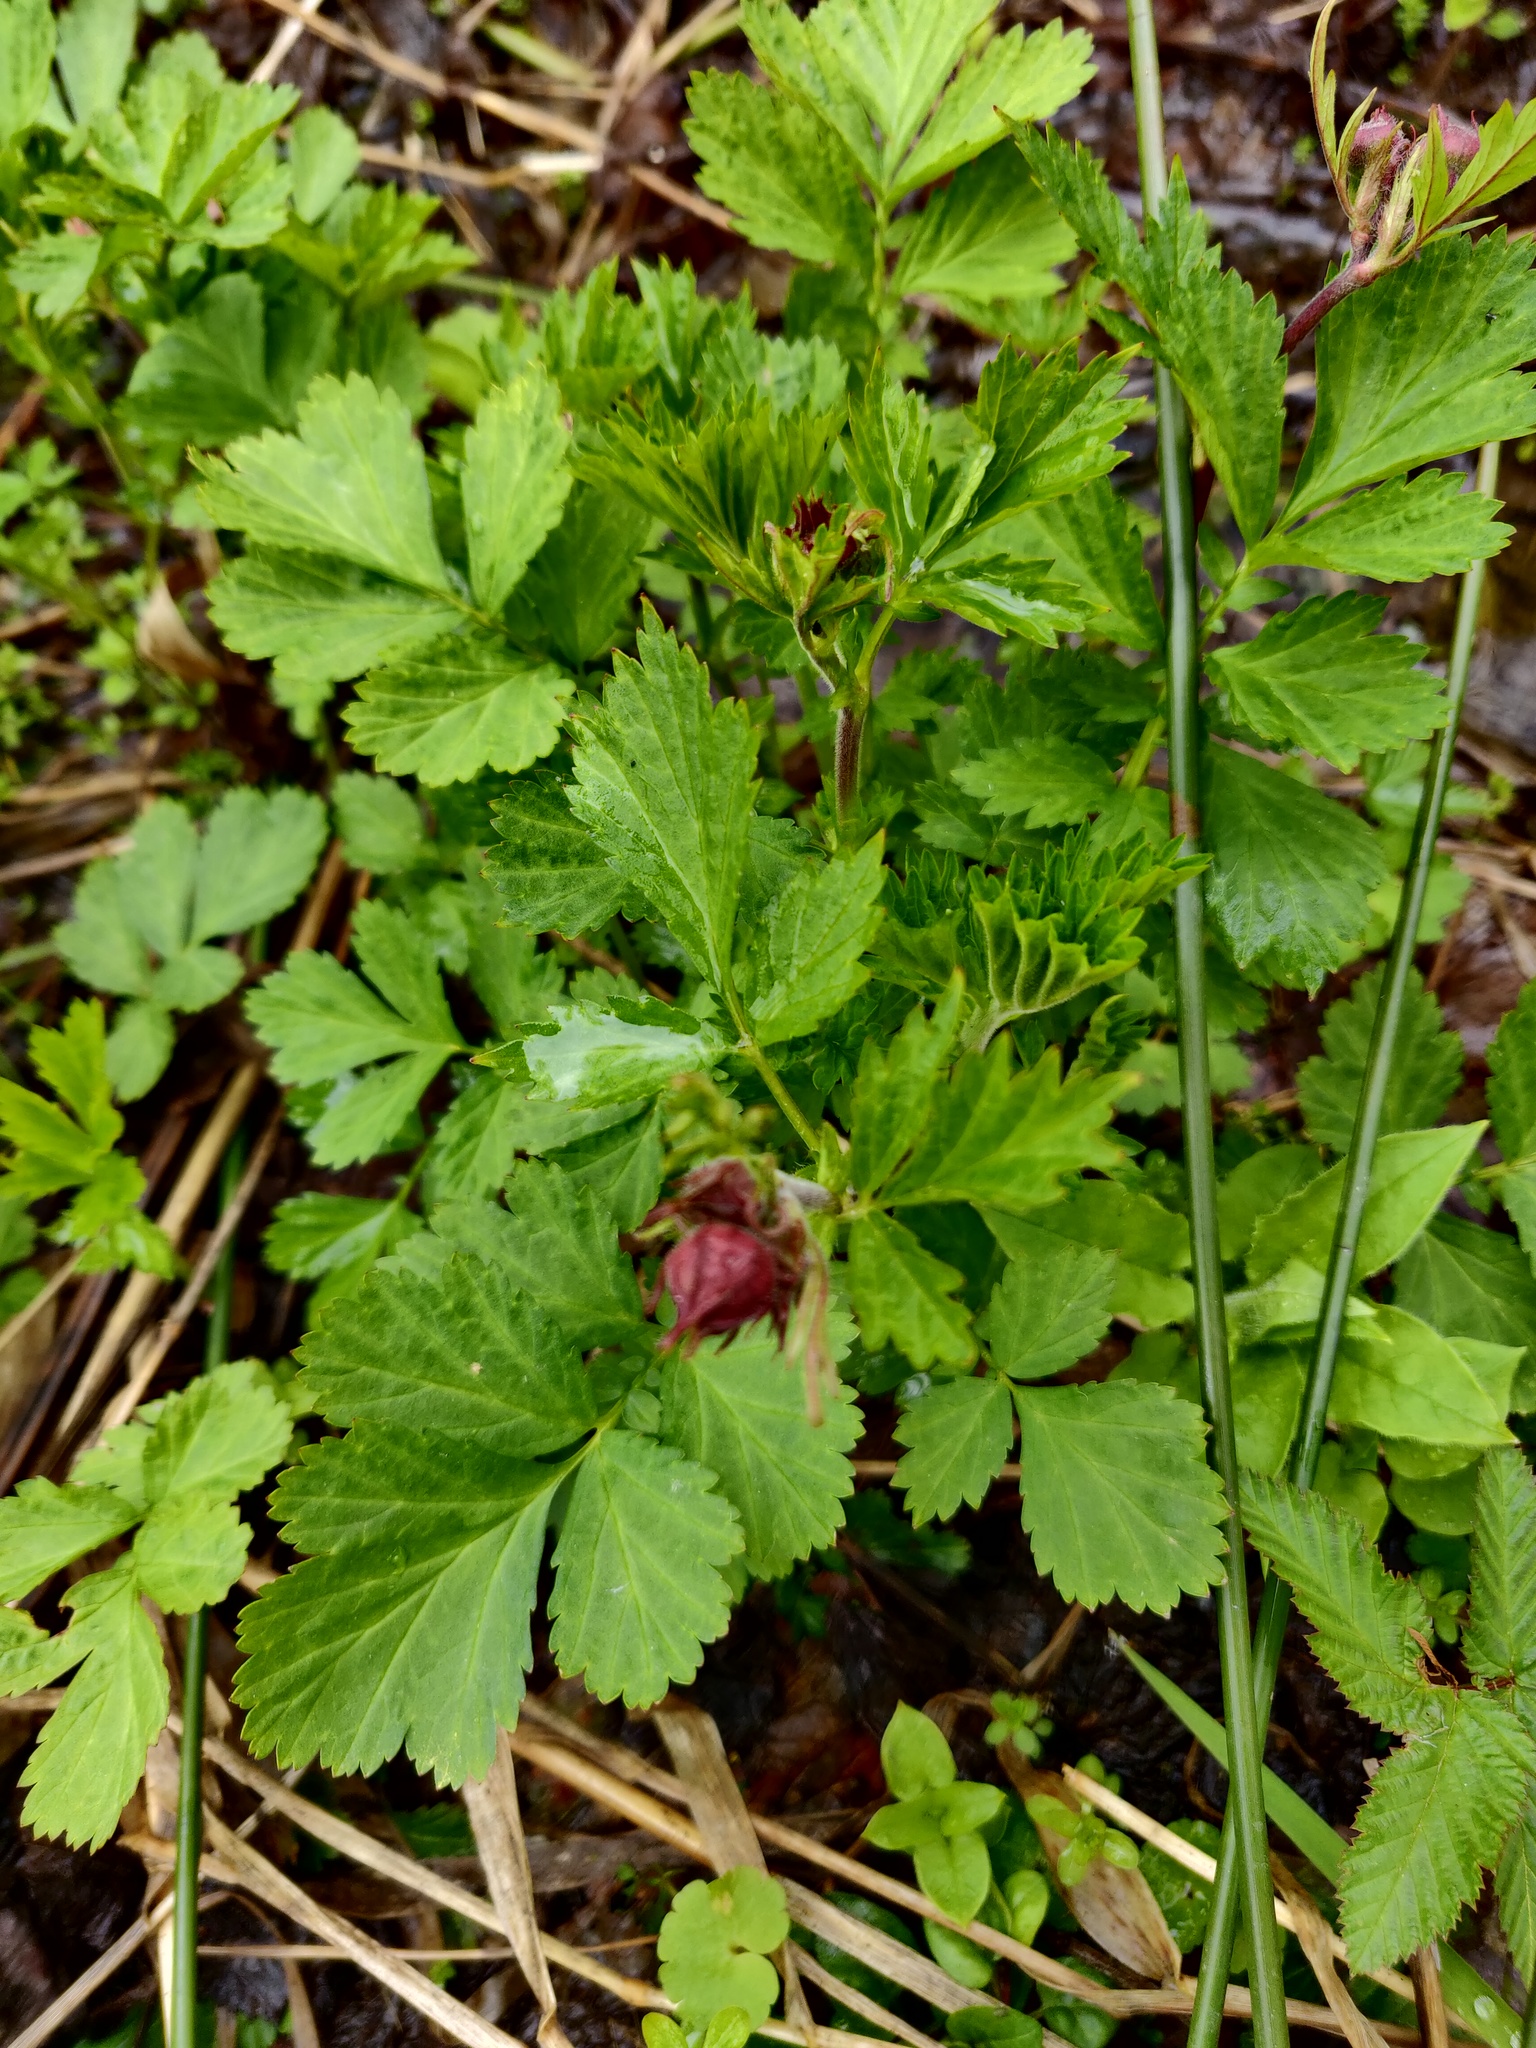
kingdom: Plantae
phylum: Tracheophyta
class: Magnoliopsida
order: Rosales
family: Rosaceae
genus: Geum
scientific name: Geum rivale
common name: Water avens
